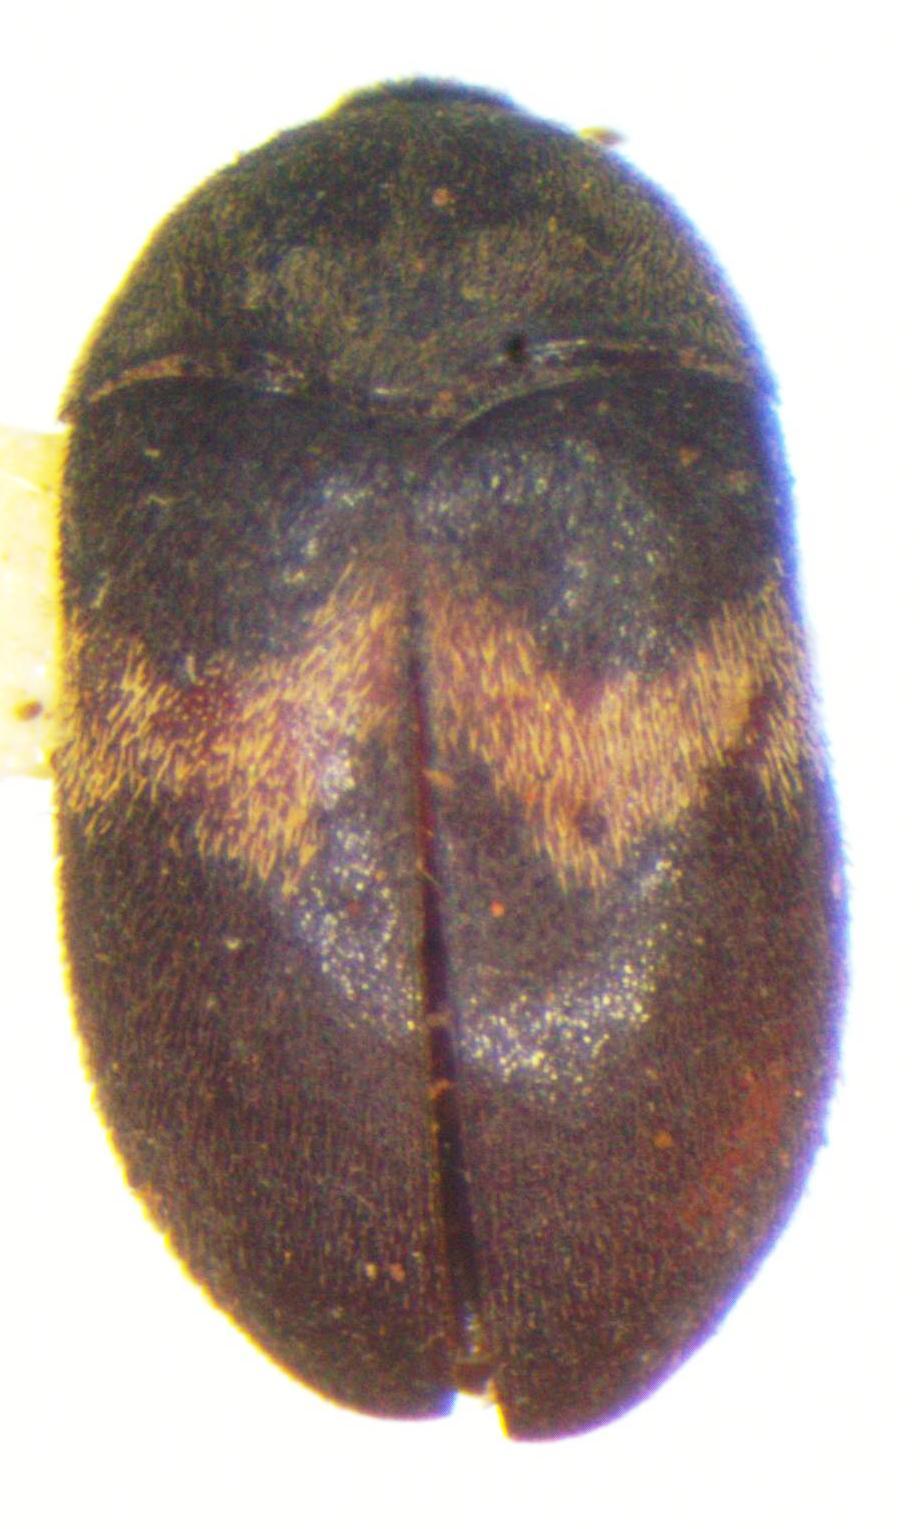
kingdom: Animalia
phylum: Arthropoda
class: Insecta
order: Coleoptera
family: Dermestidae
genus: Attagenus
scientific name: Attagenus fasciatus
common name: Wardrobe beetle
